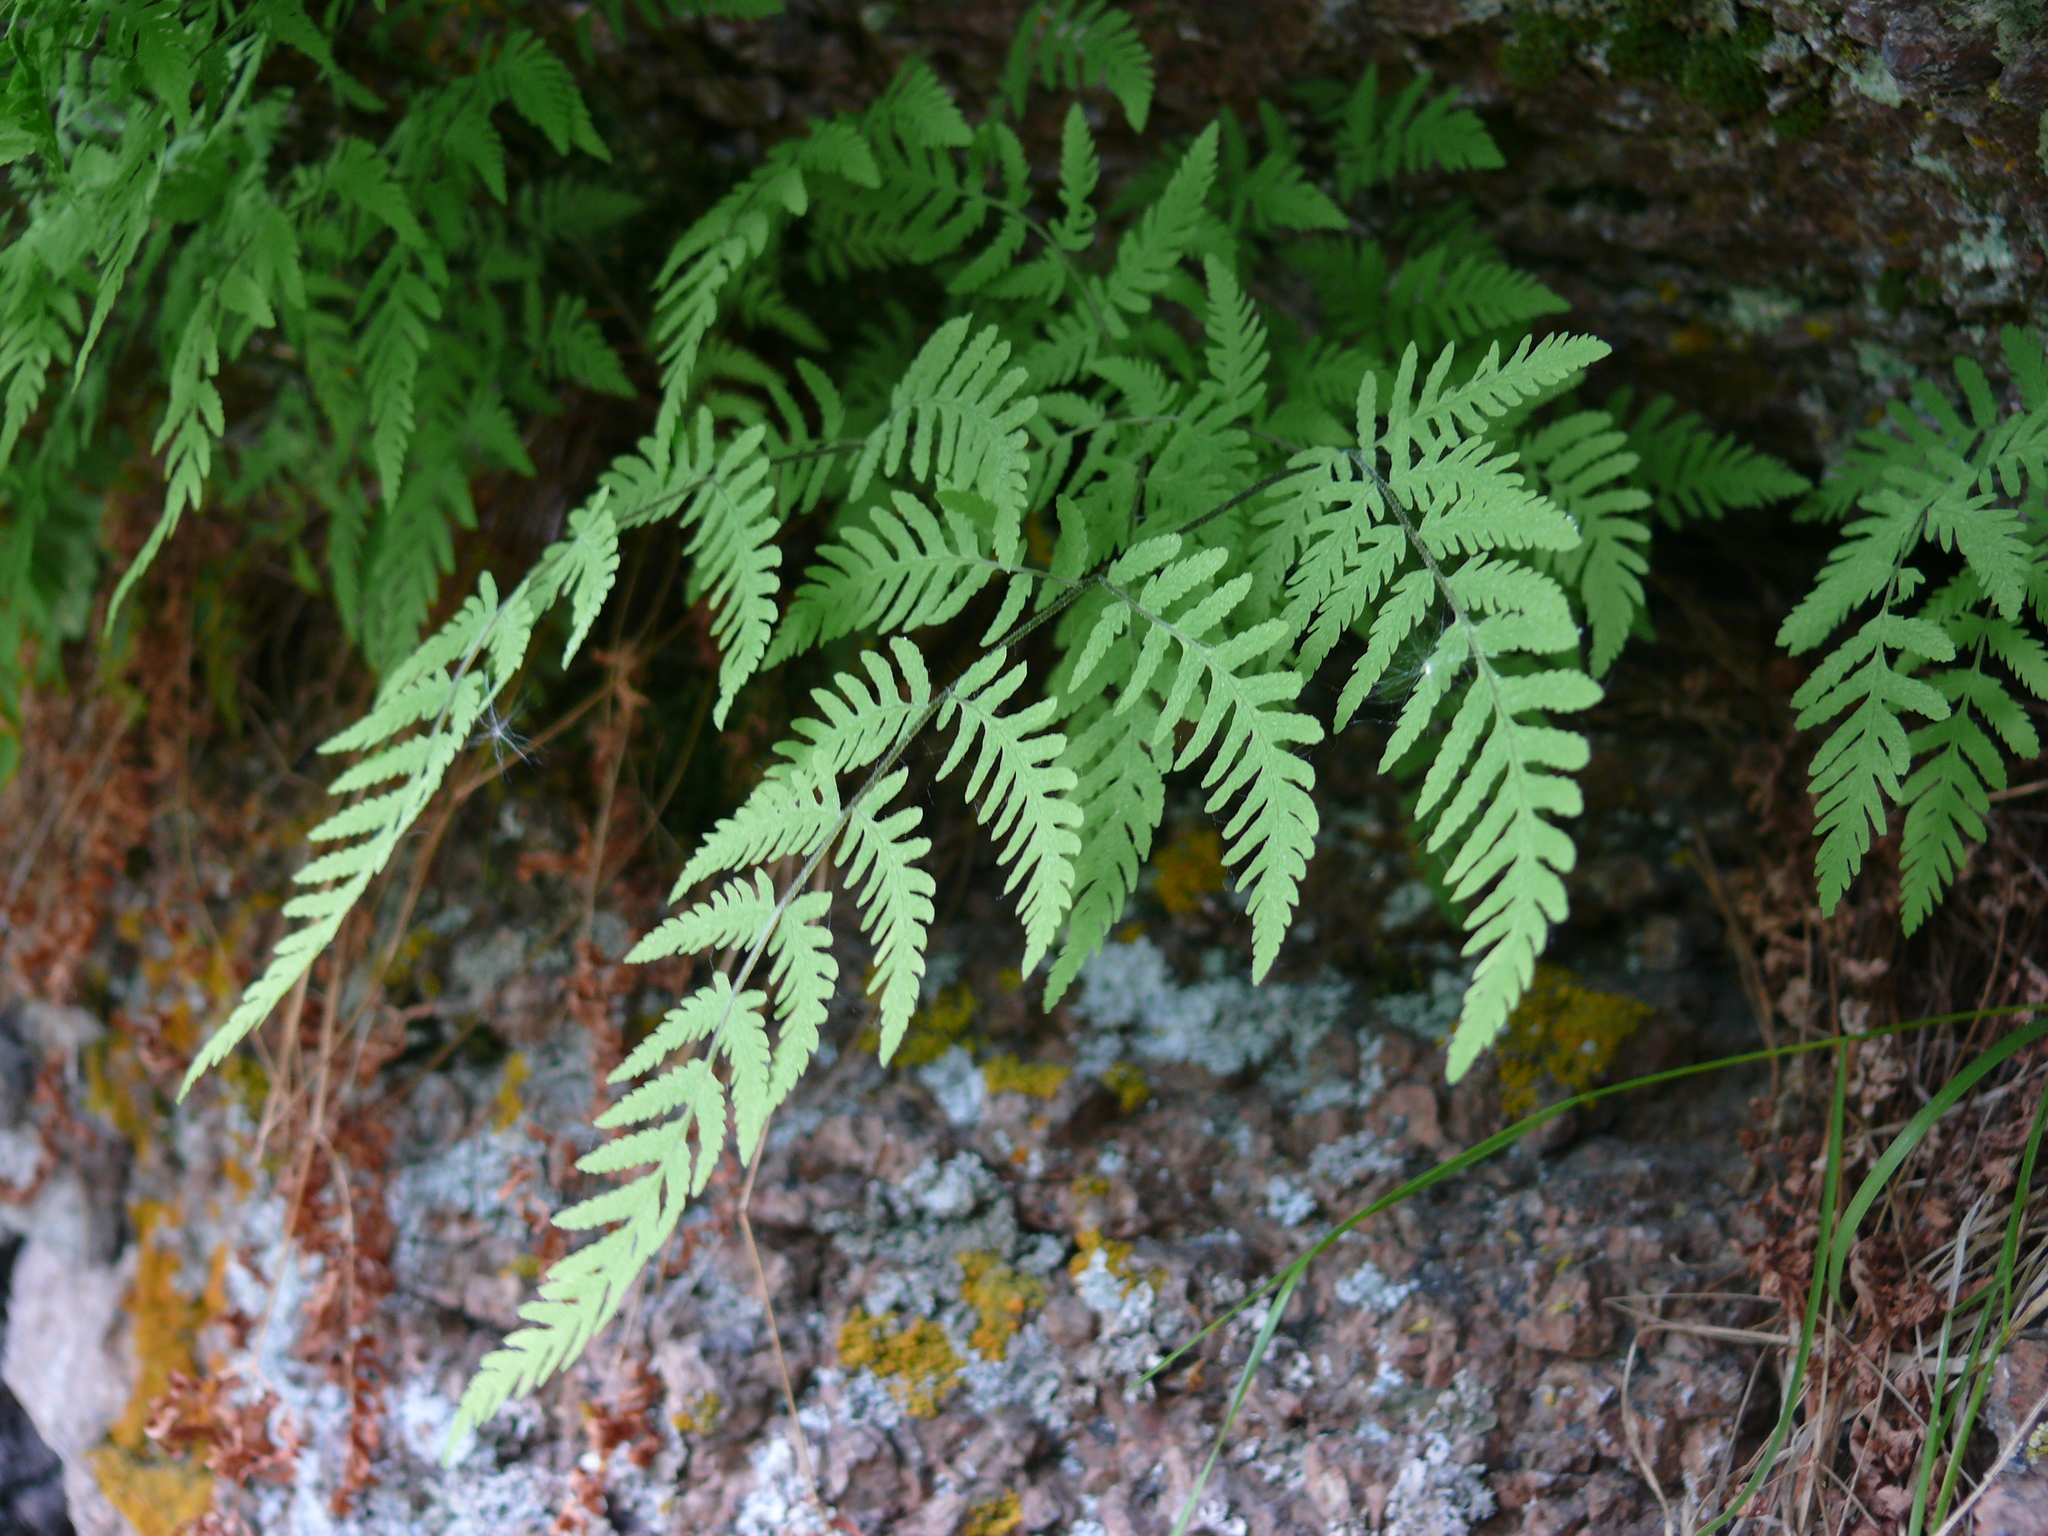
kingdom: Plantae
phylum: Tracheophyta
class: Polypodiopsida
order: Polypodiales
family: Cystopteridaceae
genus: Gymnocarpium
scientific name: Gymnocarpium jessoense
